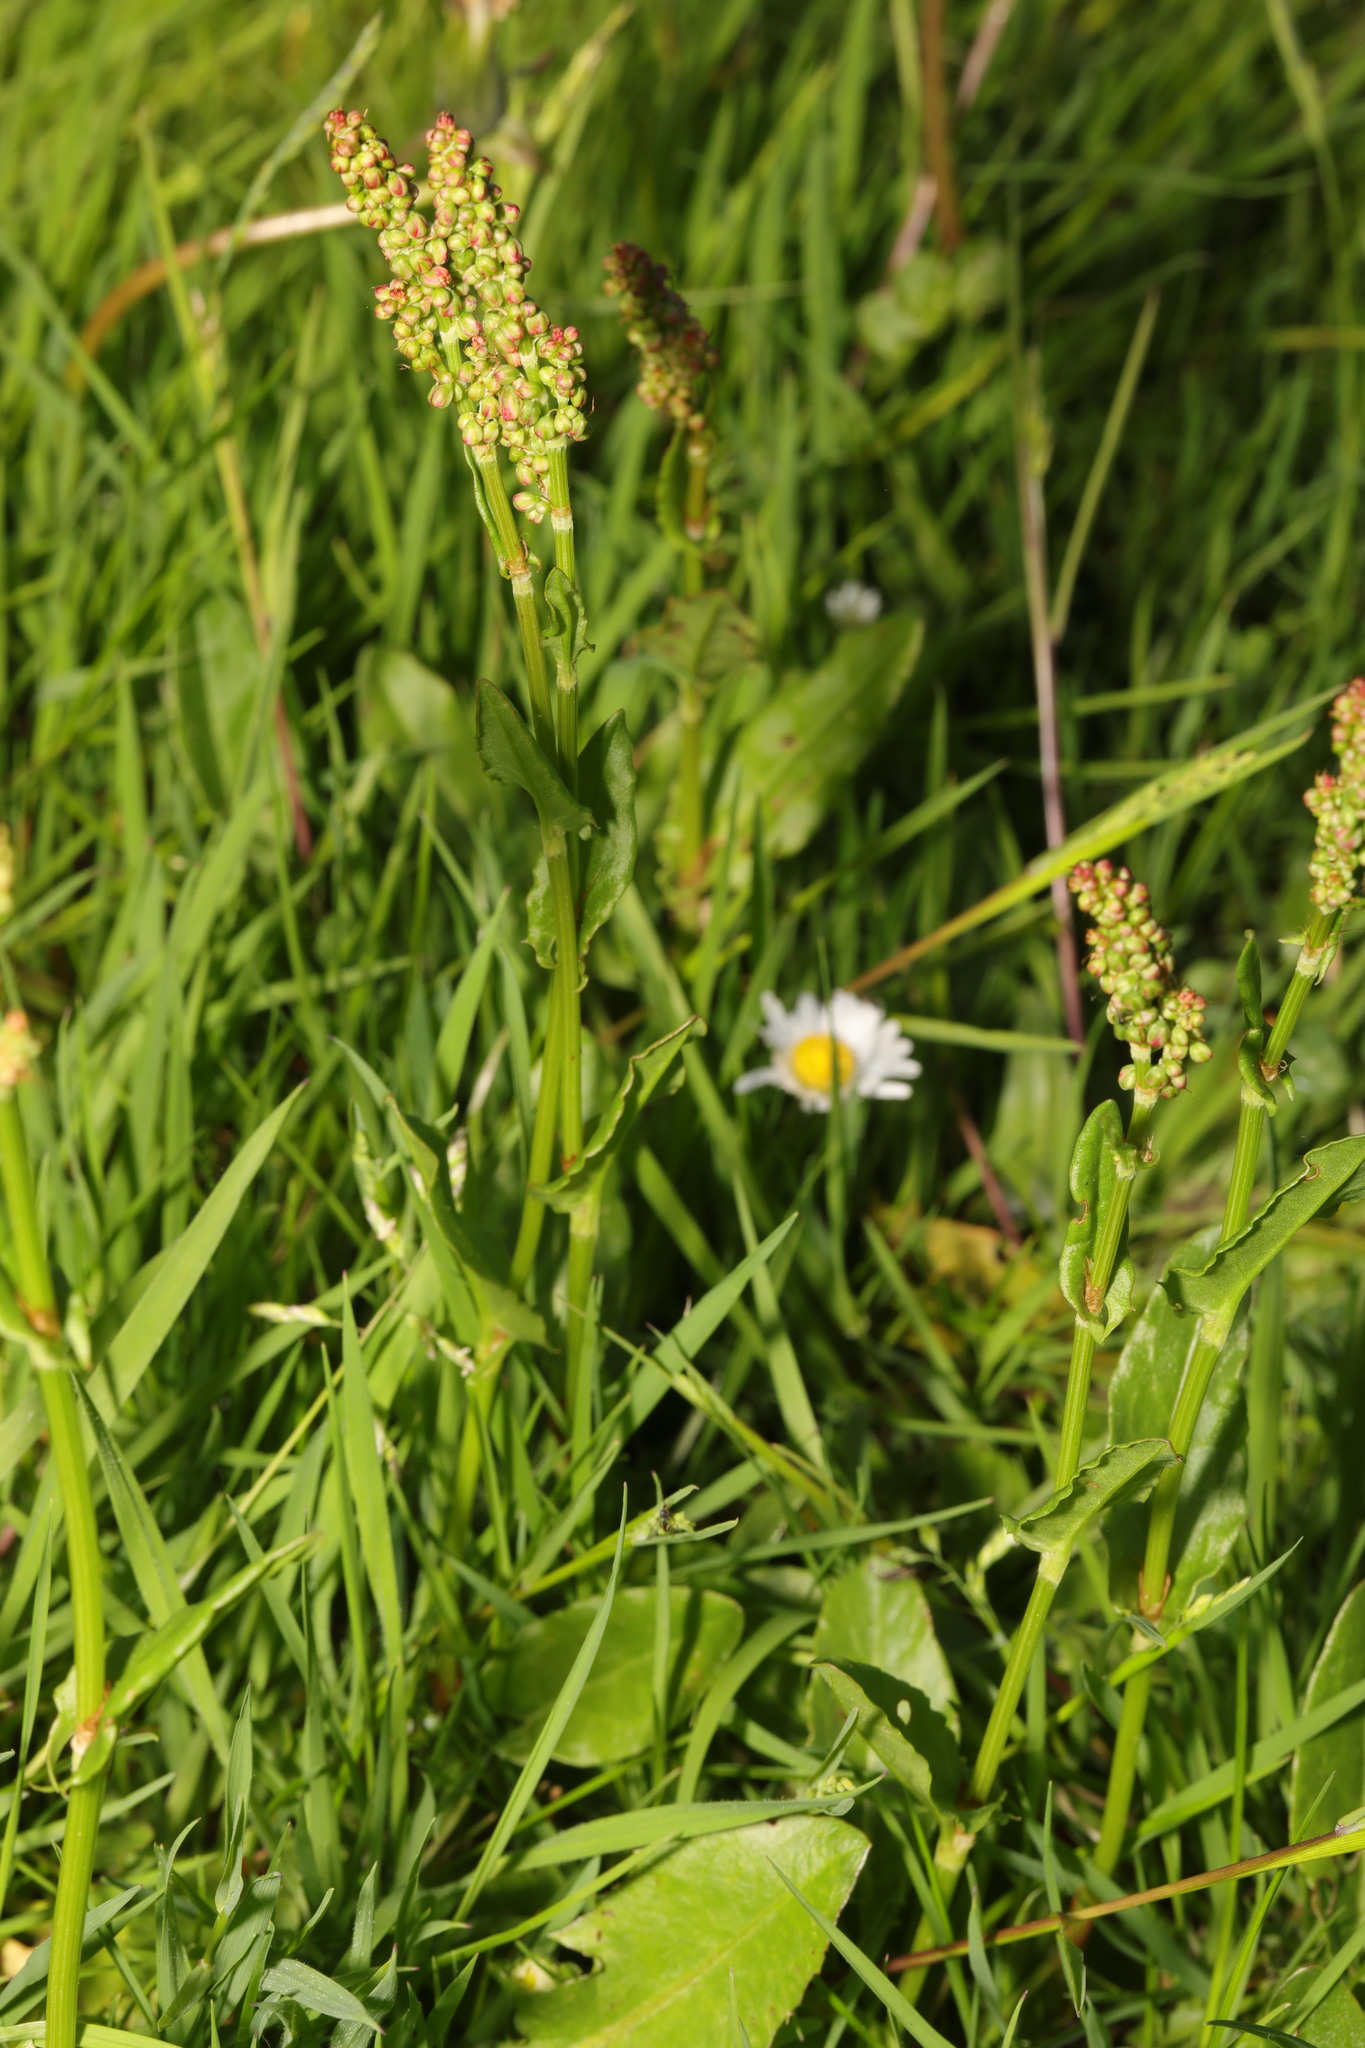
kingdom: Plantae
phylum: Tracheophyta
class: Magnoliopsida
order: Caryophyllales
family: Polygonaceae
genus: Rumex
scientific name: Rumex acetosa
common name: Garden sorrel
